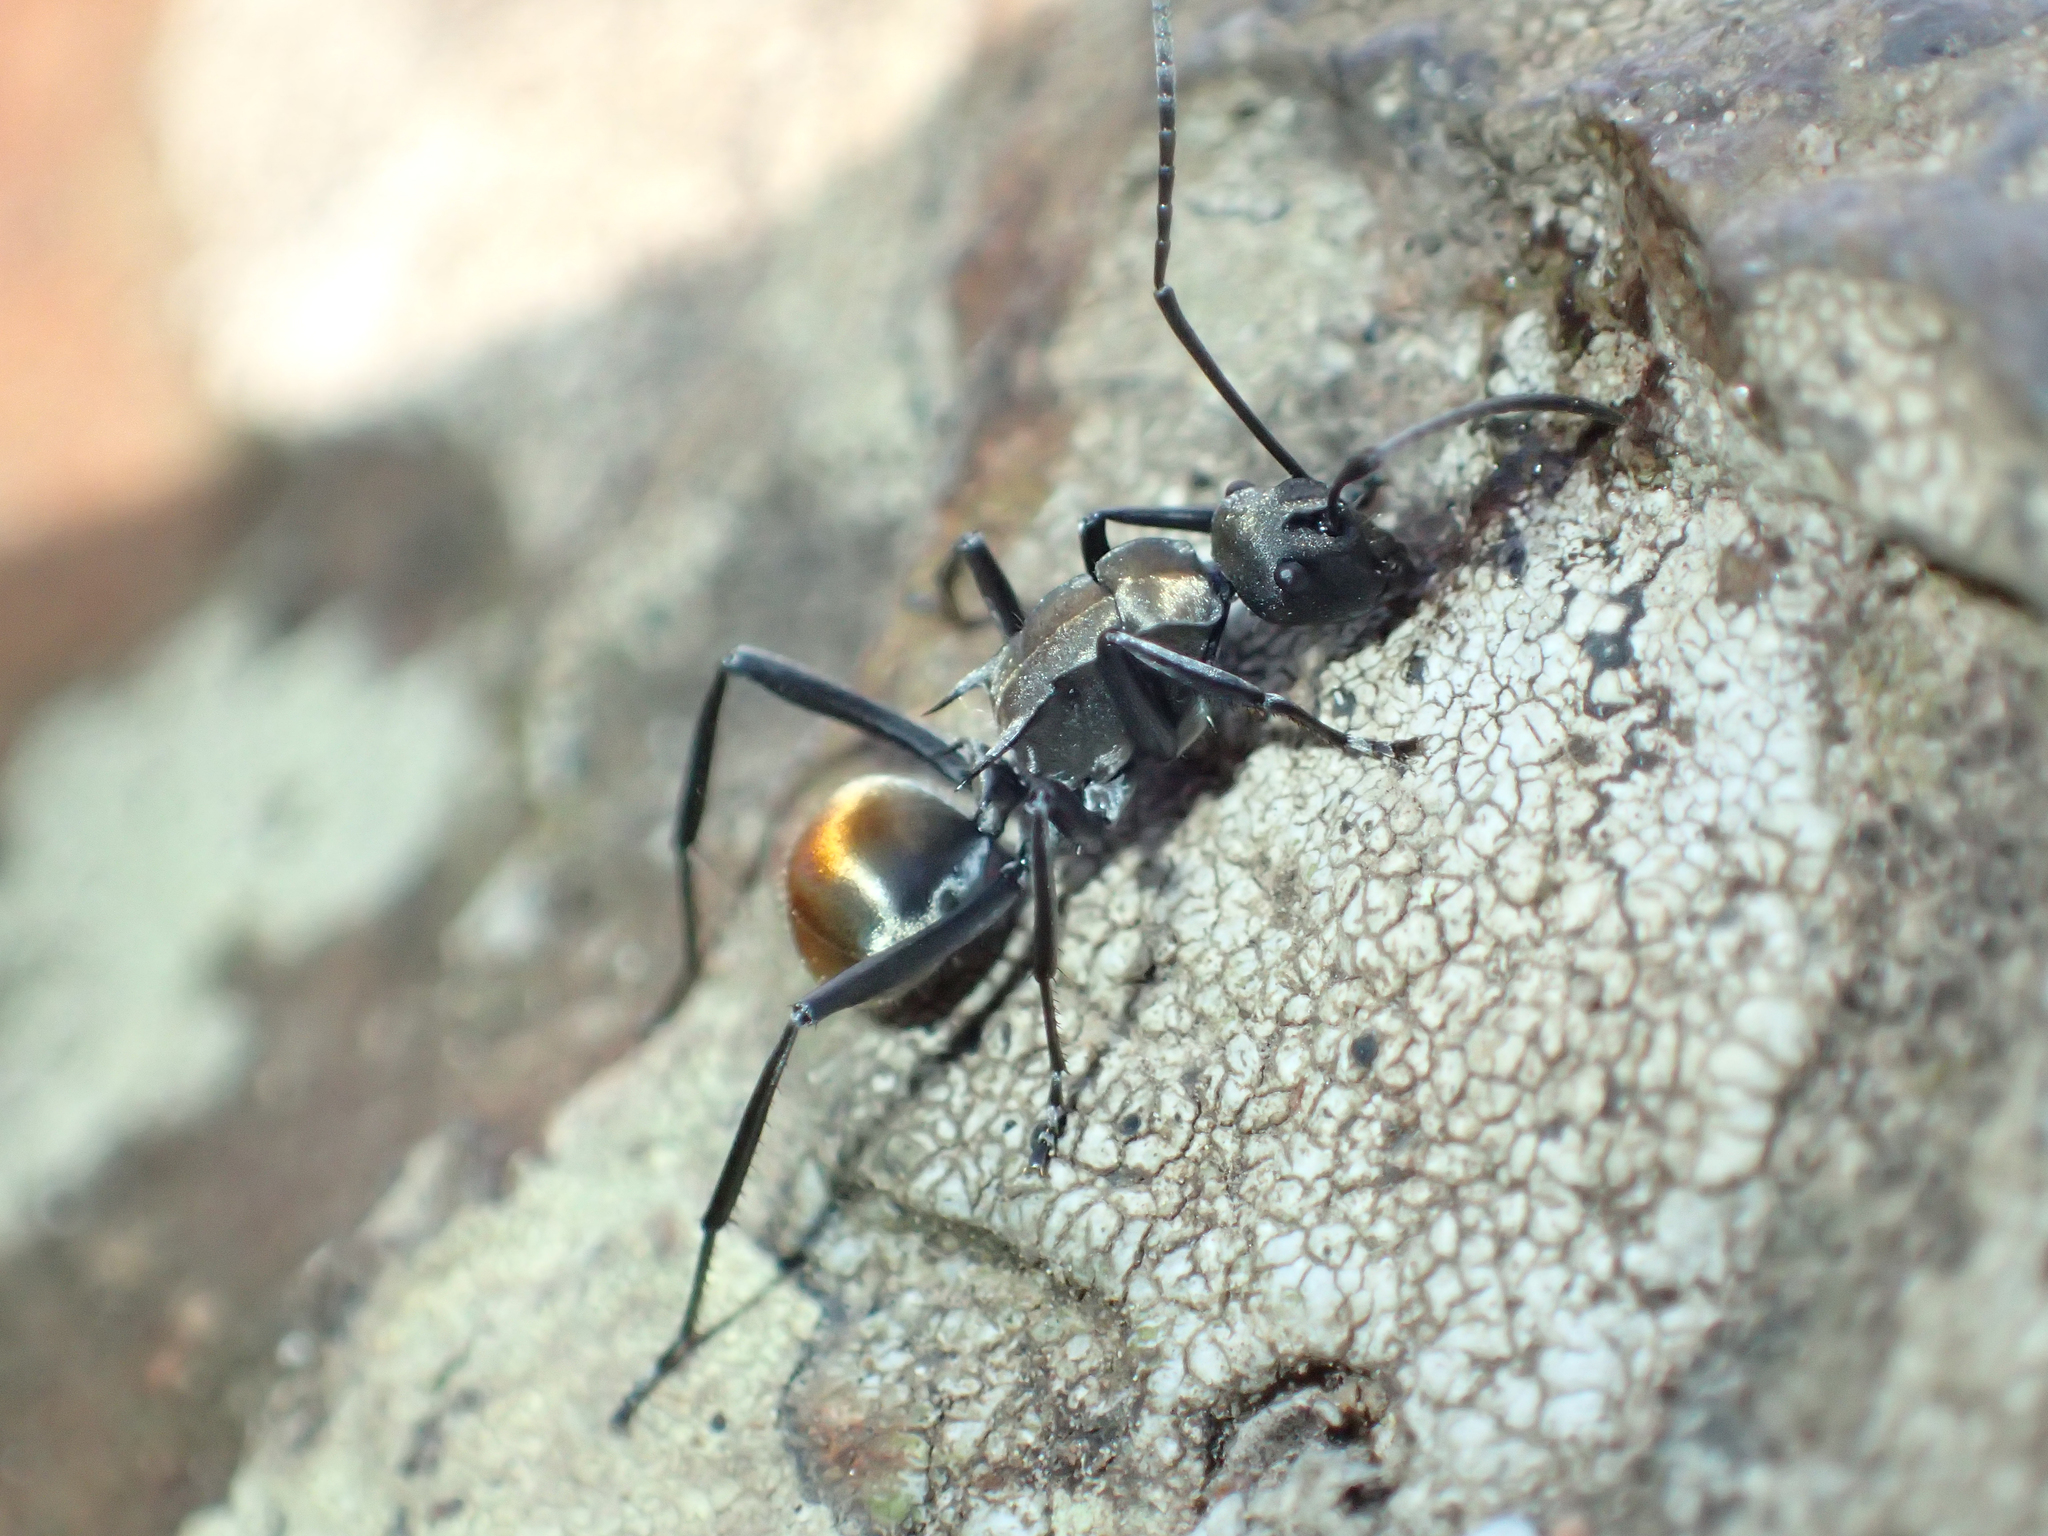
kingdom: Animalia
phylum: Arthropoda
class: Insecta
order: Hymenoptera
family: Formicidae
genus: Polyrhachis
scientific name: Polyrhachis ammon
